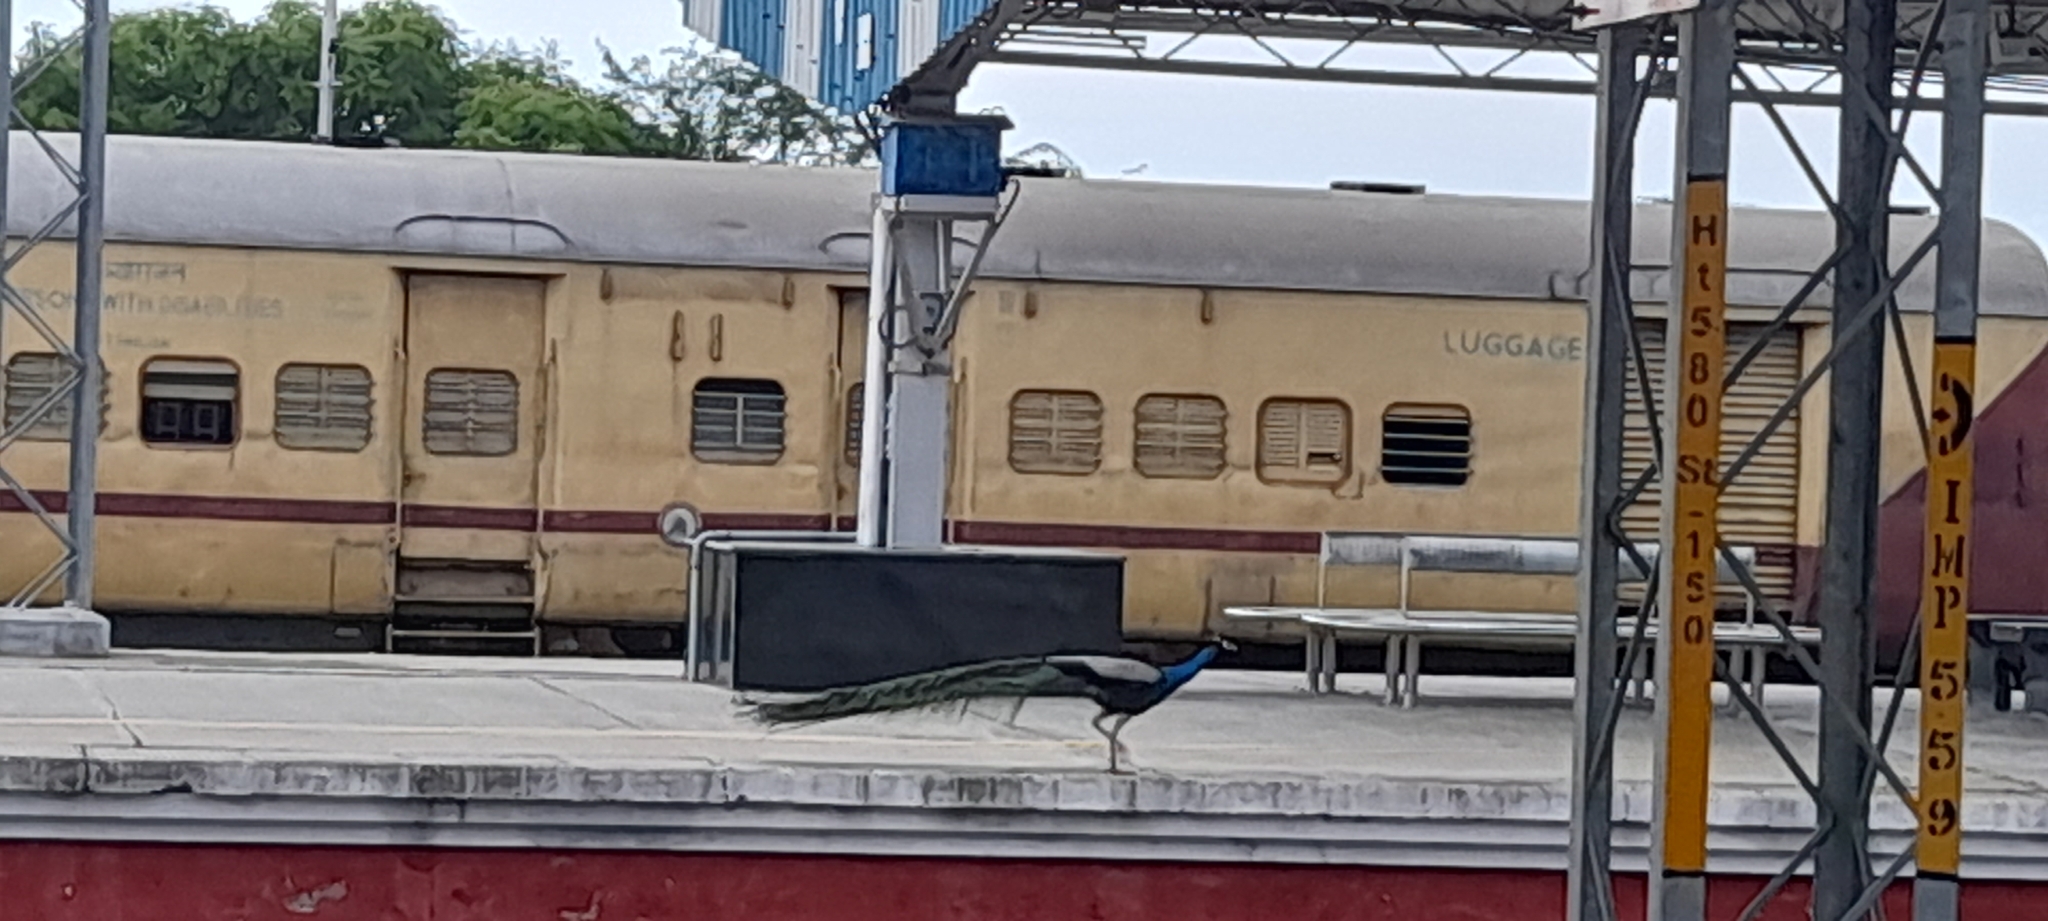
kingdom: Animalia
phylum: Chordata
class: Aves
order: Galliformes
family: Phasianidae
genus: Pavo
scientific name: Pavo cristatus
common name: Indian peafowl
